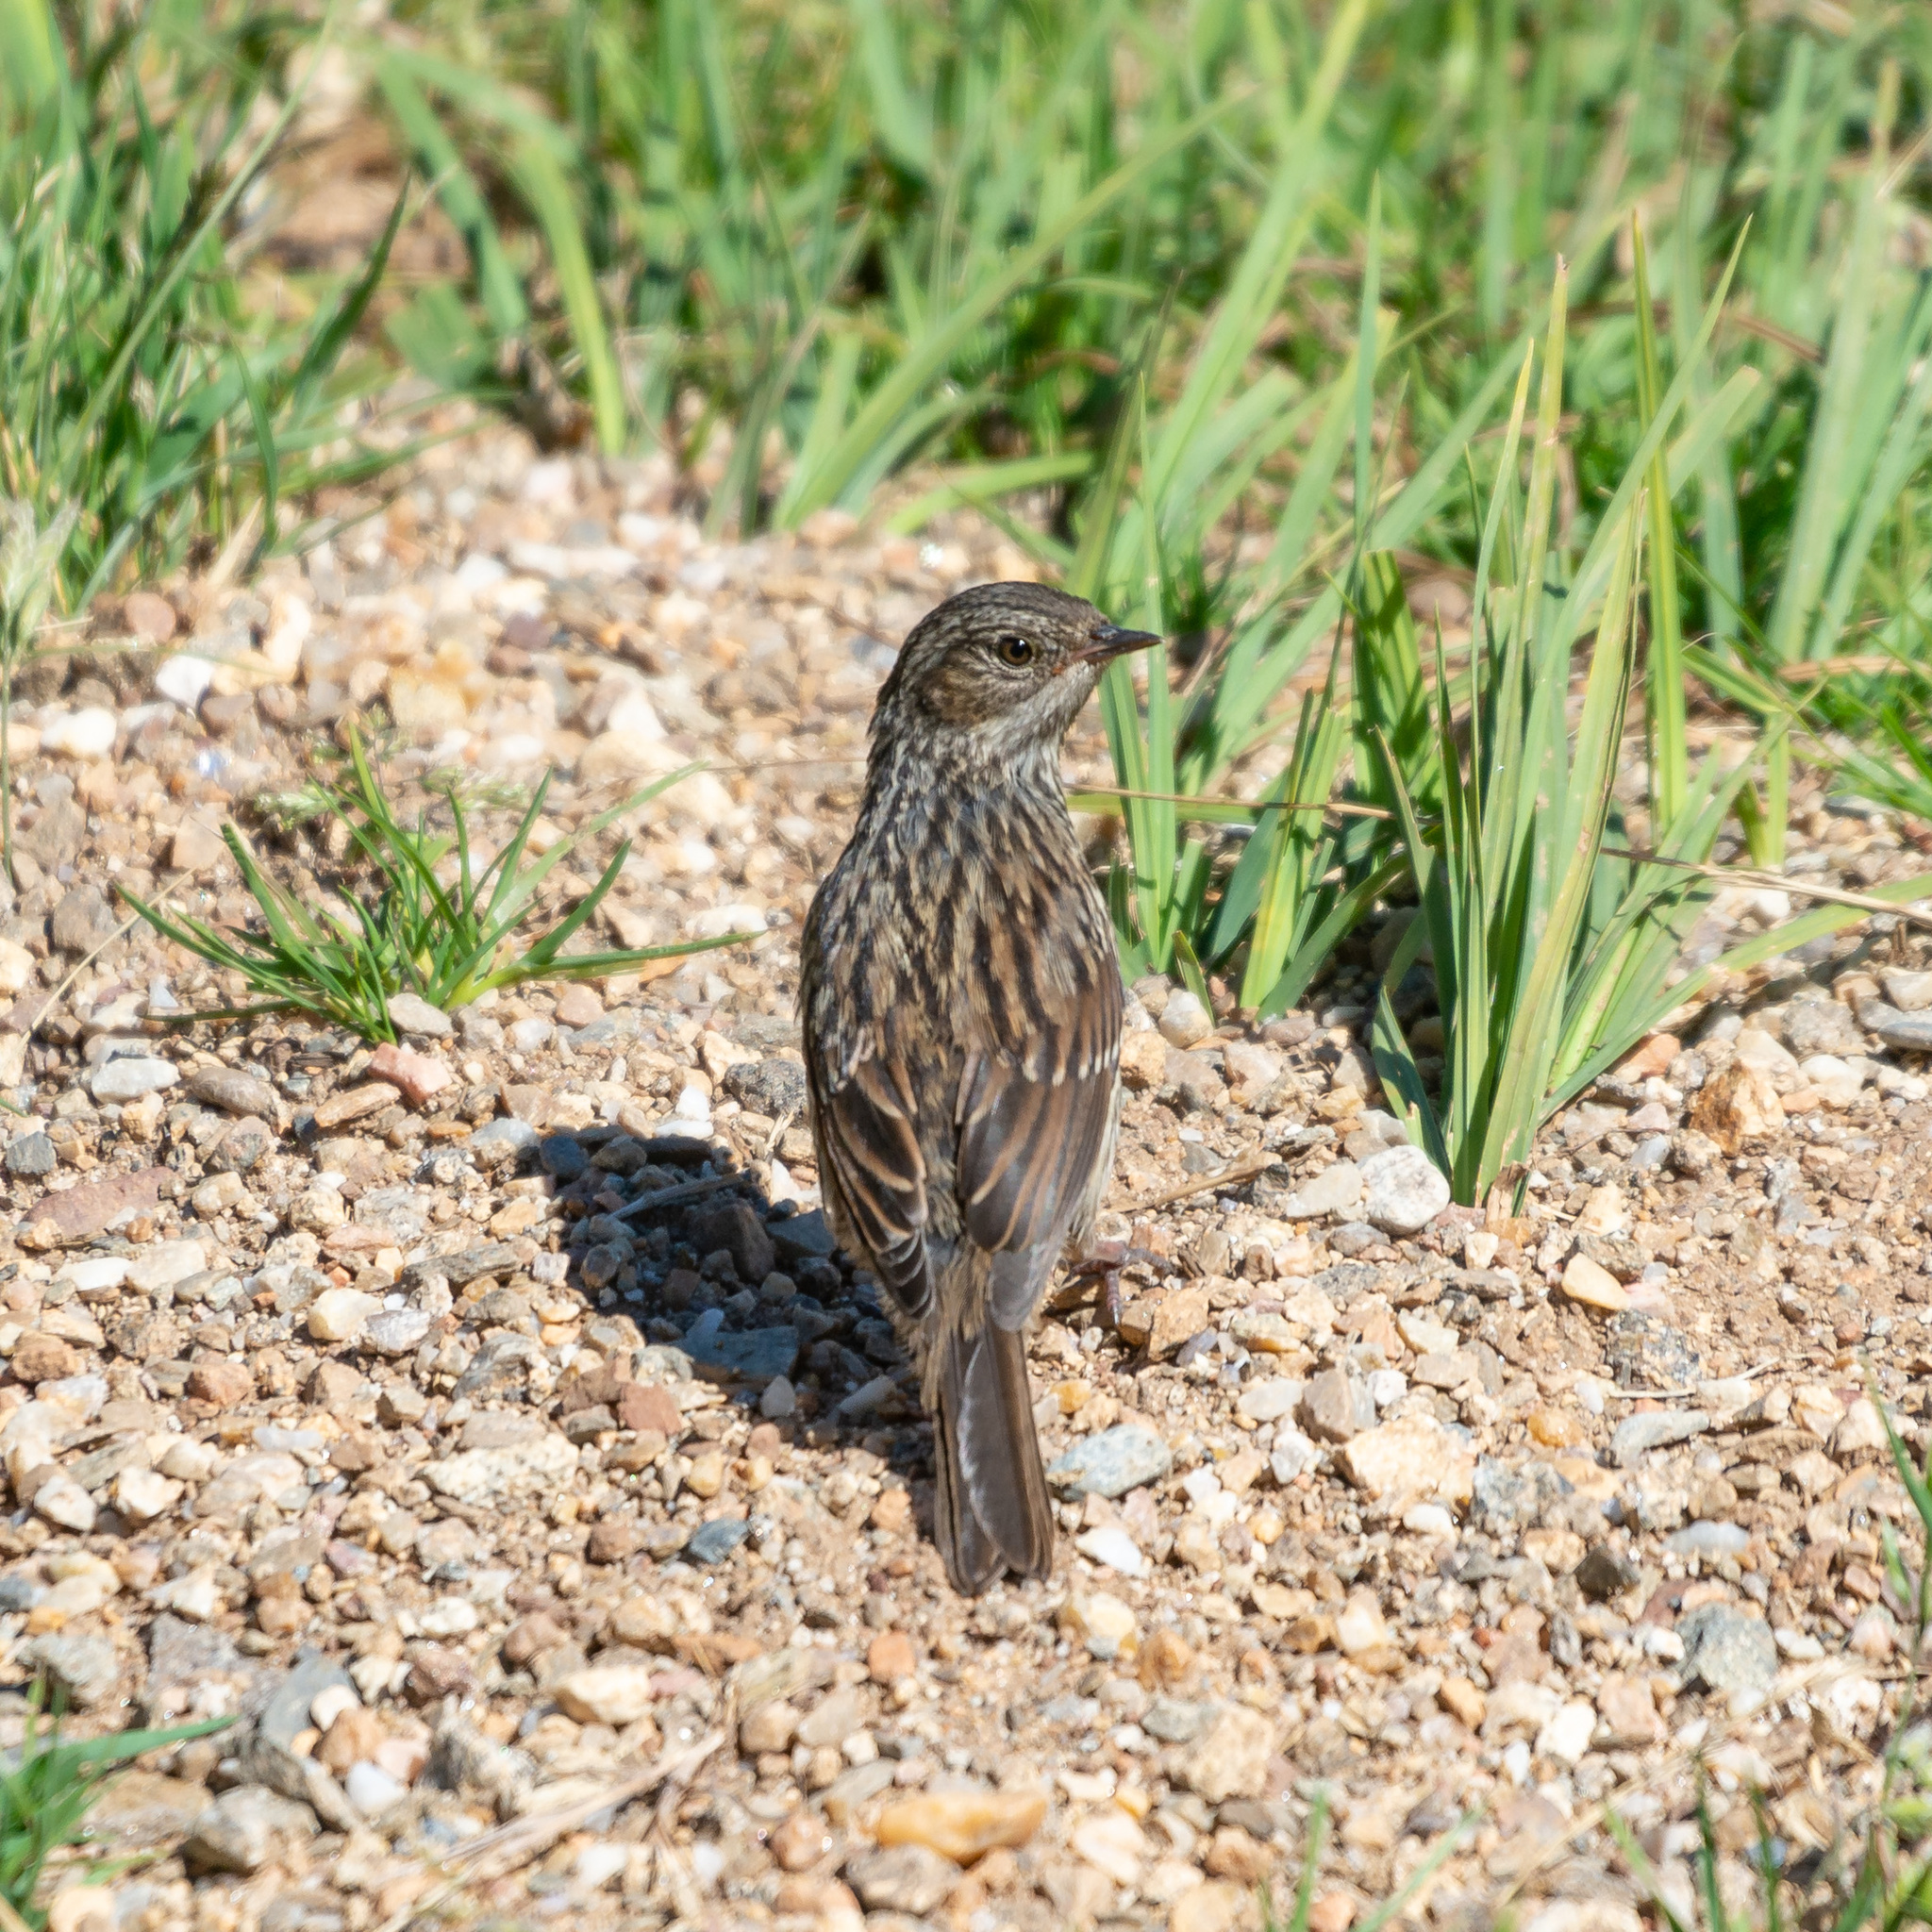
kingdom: Animalia
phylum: Chordata
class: Aves
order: Passeriformes
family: Prunellidae
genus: Prunella
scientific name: Prunella modularis
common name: Dunnock
